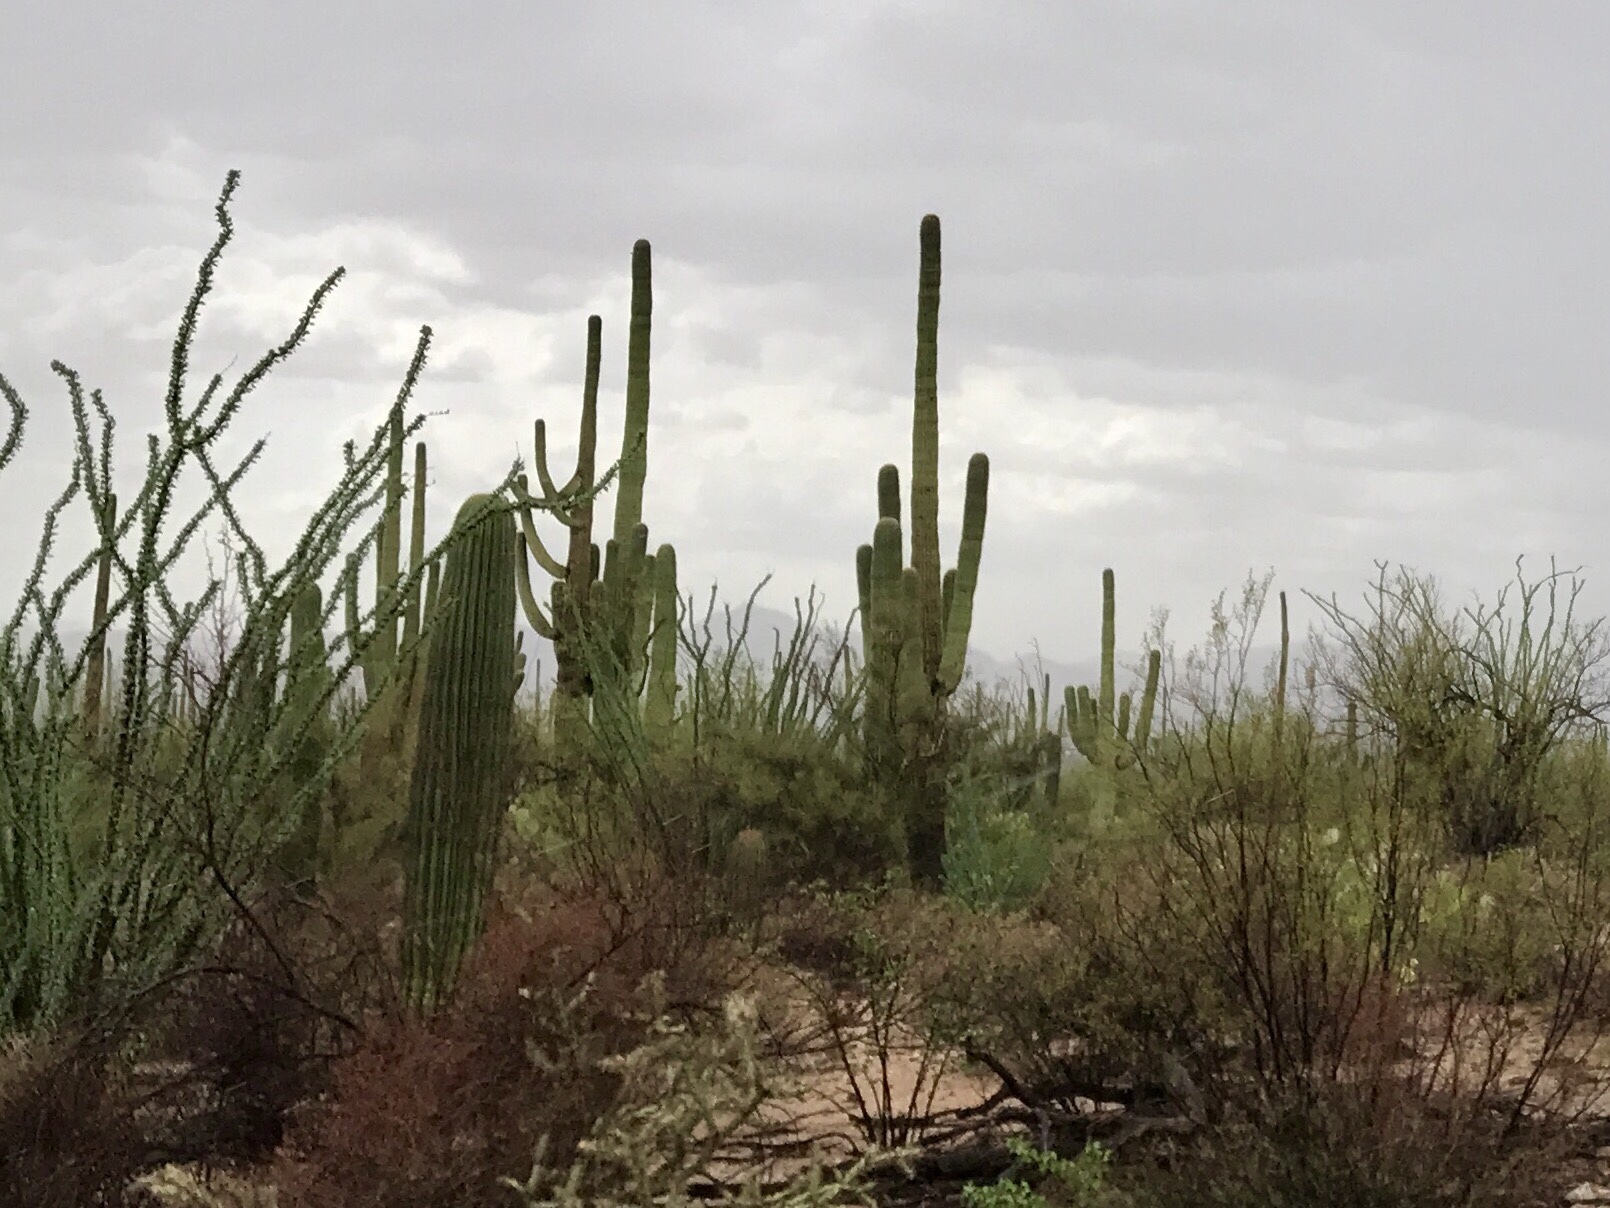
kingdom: Plantae
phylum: Tracheophyta
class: Magnoliopsida
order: Caryophyllales
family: Cactaceae
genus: Carnegiea
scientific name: Carnegiea gigantea
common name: Saguaro
